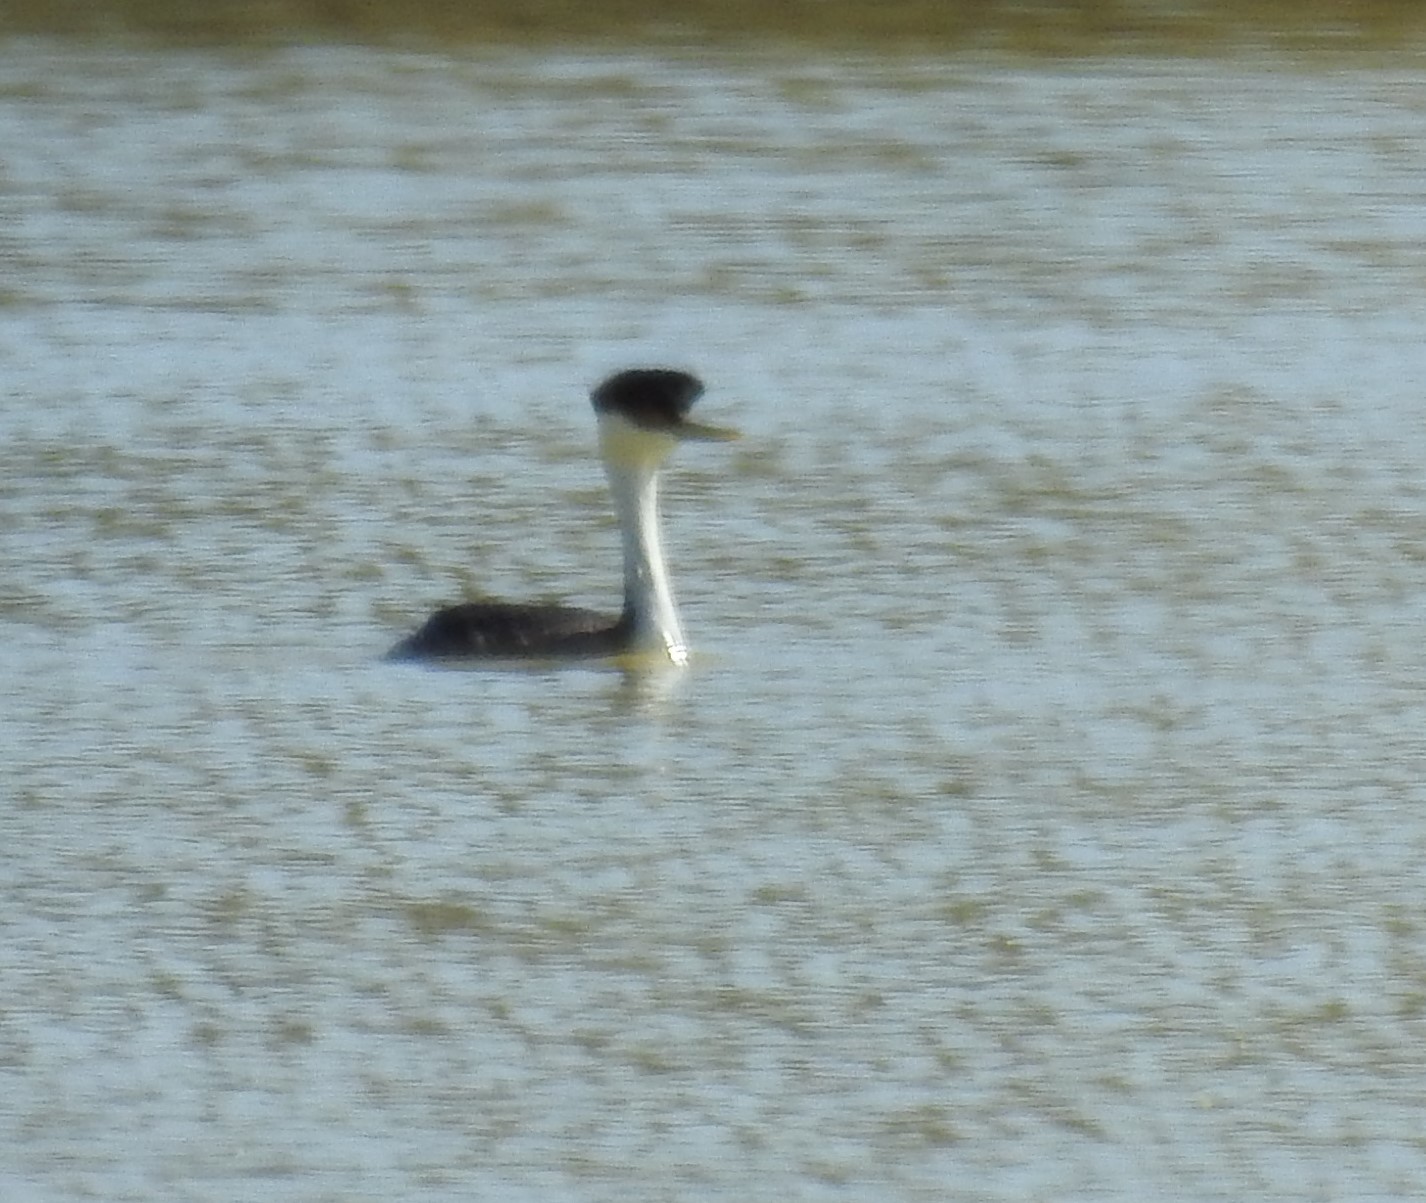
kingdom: Animalia
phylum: Chordata
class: Aves
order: Podicipediformes
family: Podicipedidae
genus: Aechmophorus
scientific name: Aechmophorus occidentalis
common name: Western grebe
